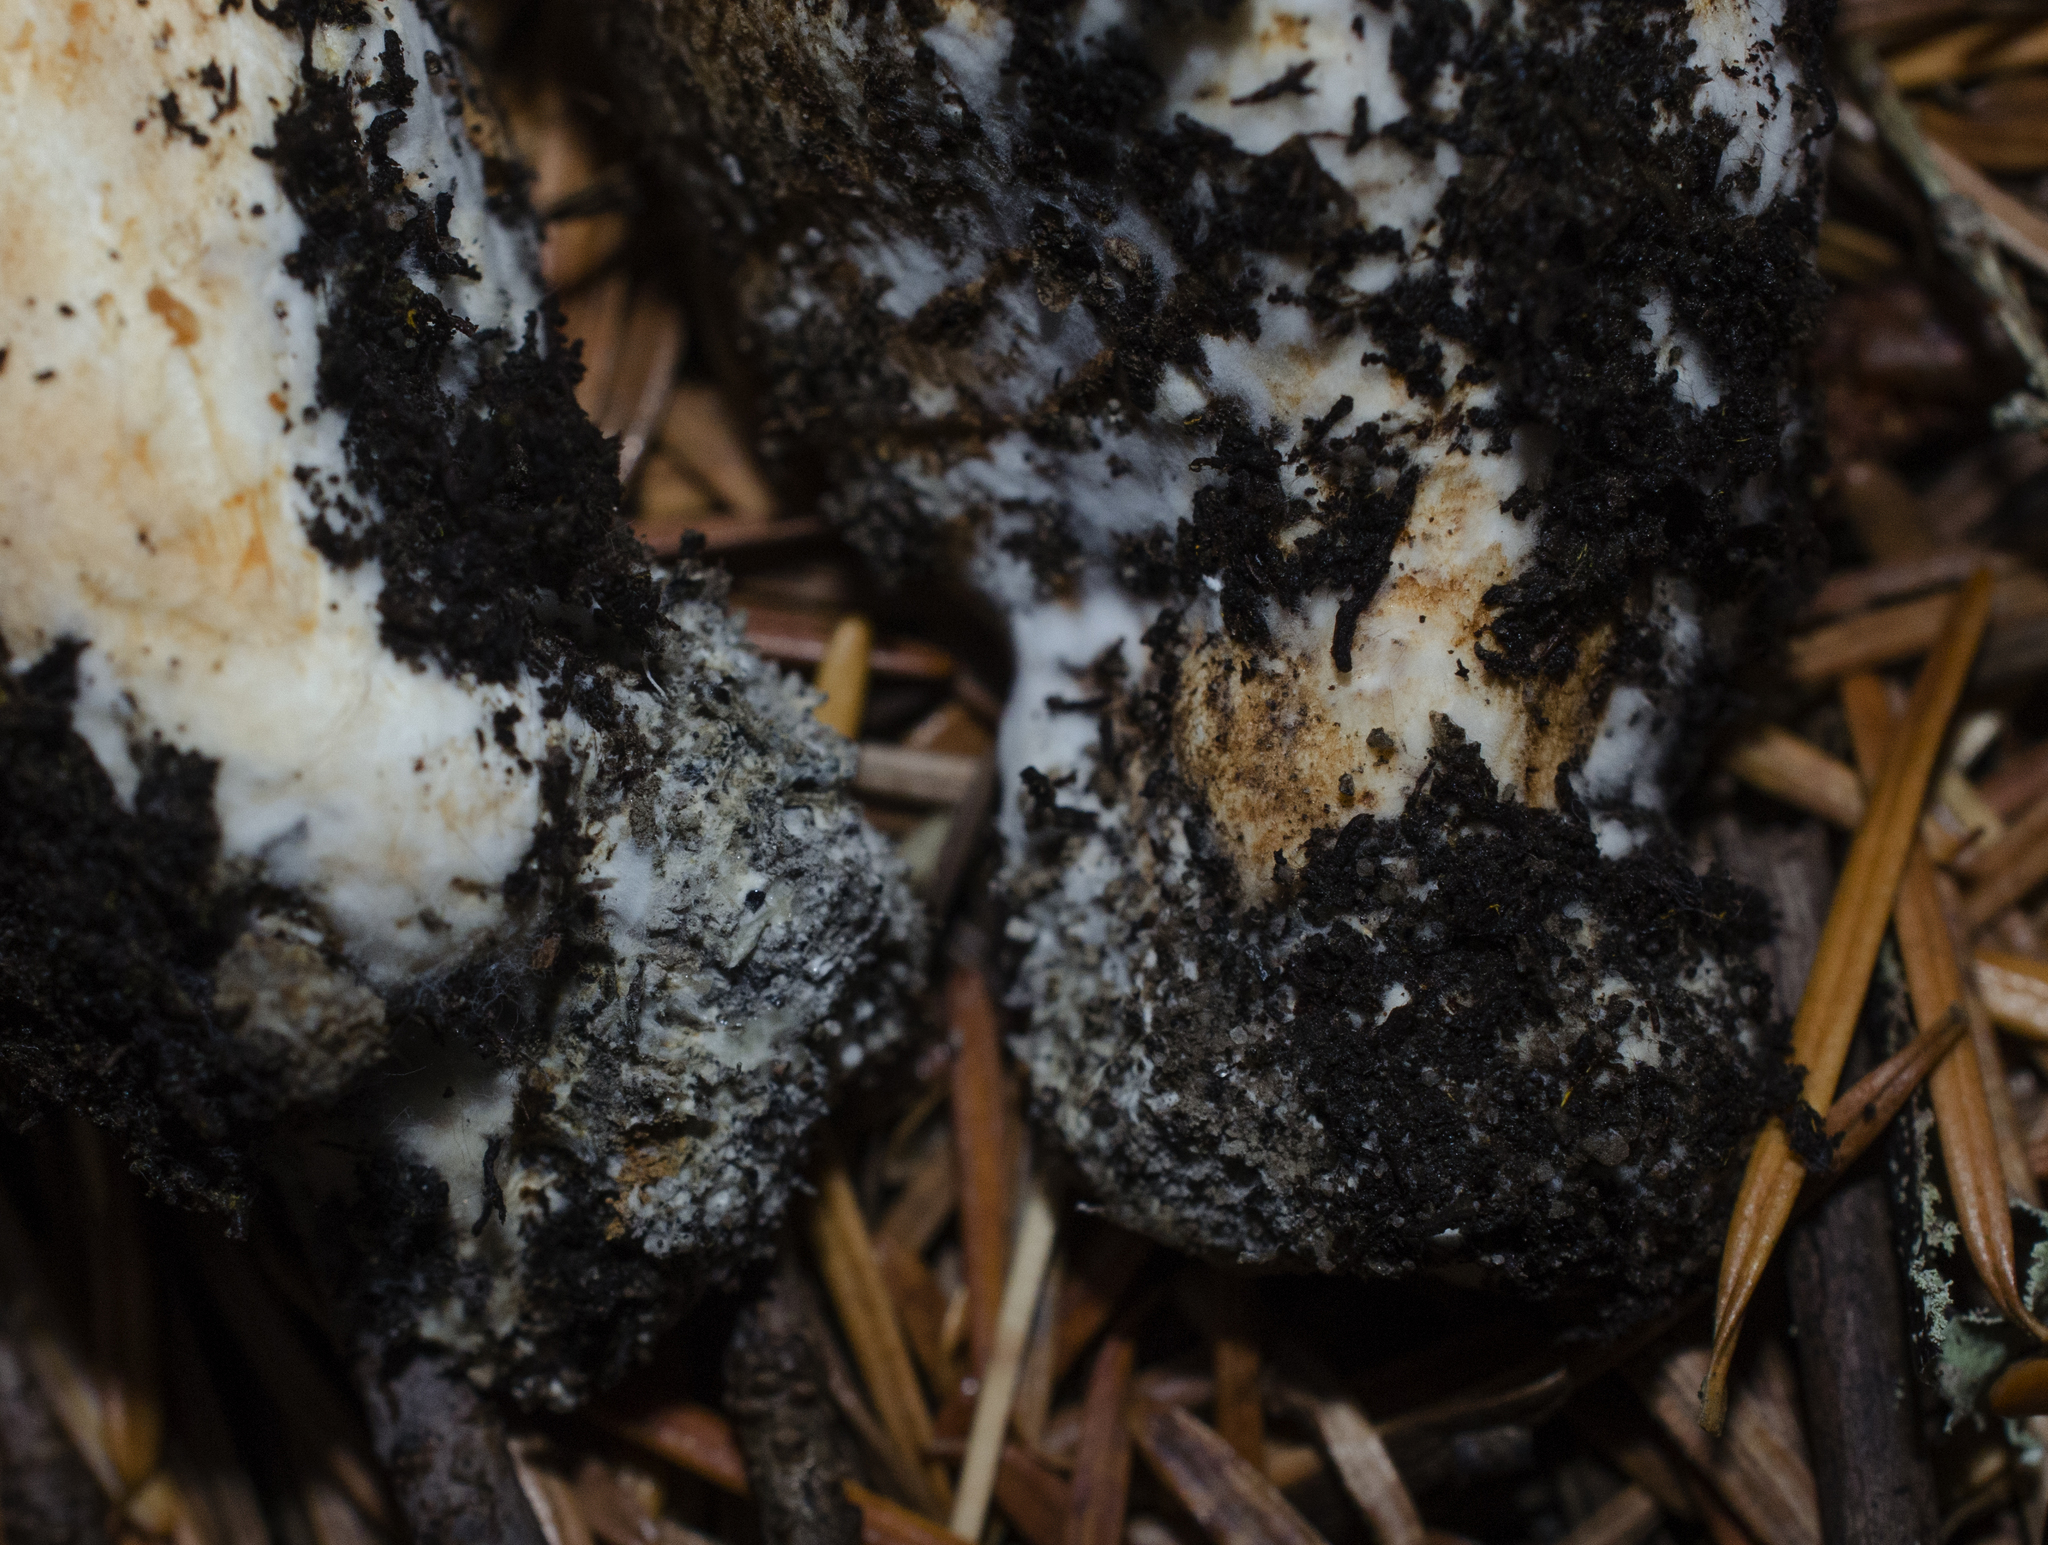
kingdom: Fungi
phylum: Basidiomycota
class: Agaricomycetes
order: Agaricales
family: Tricholomataceae
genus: Tricholoma
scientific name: Tricholoma focale
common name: Booted knight
